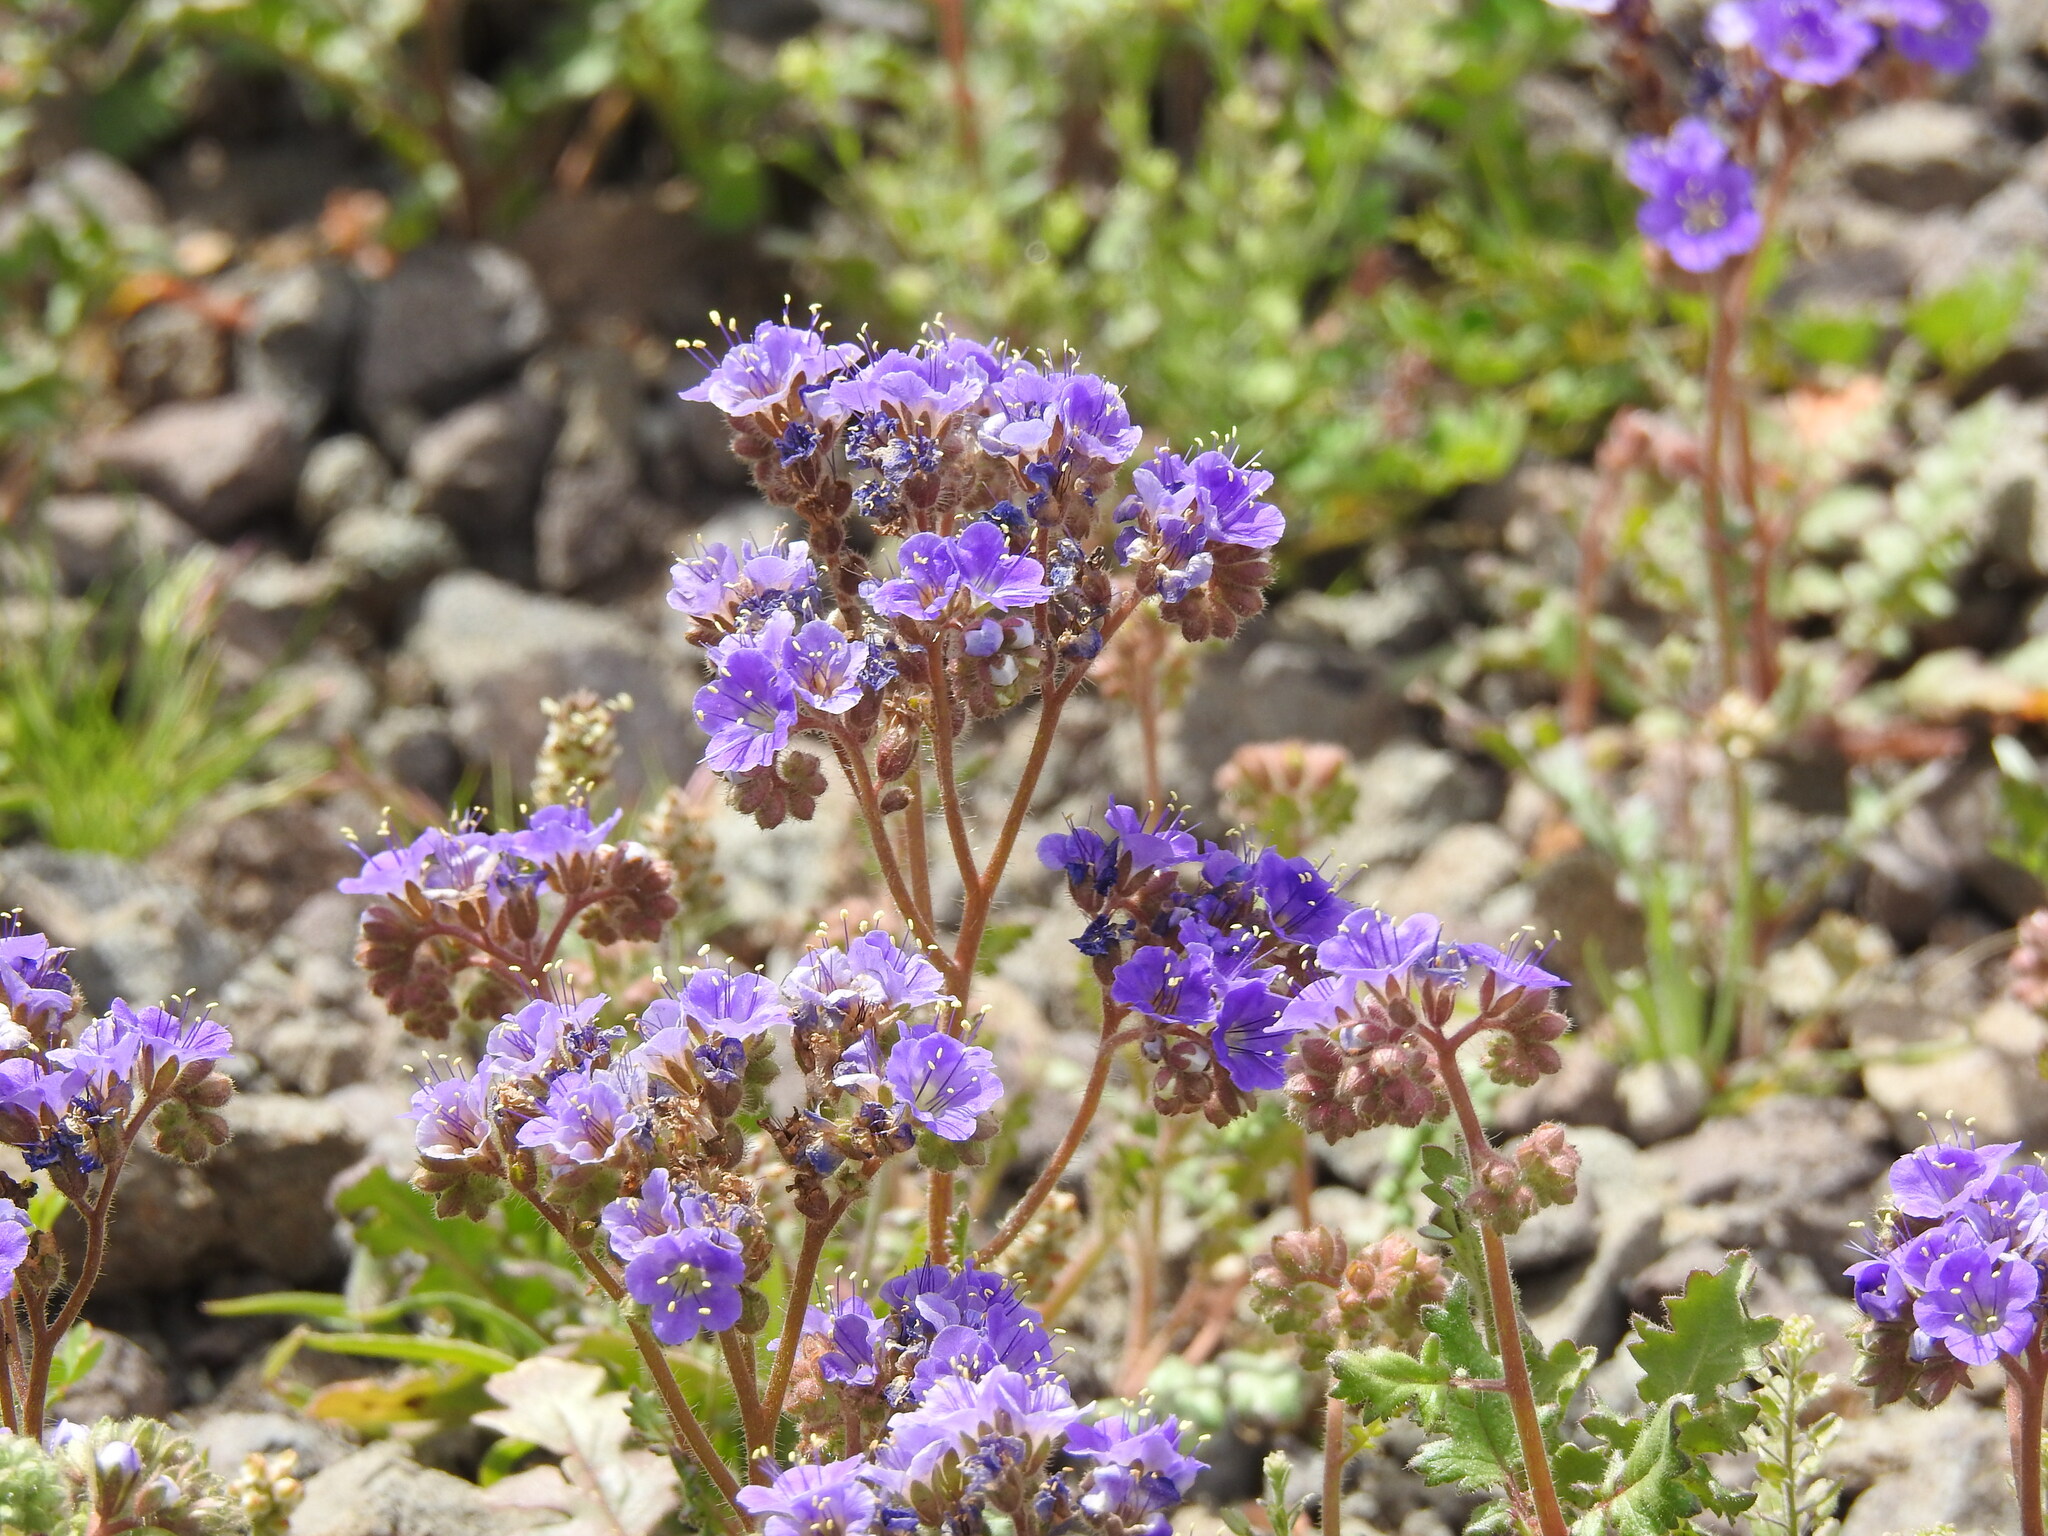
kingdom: Plantae
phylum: Tracheophyta
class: Magnoliopsida
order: Boraginales
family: Hydrophyllaceae
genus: Phacelia
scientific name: Phacelia crenulata
